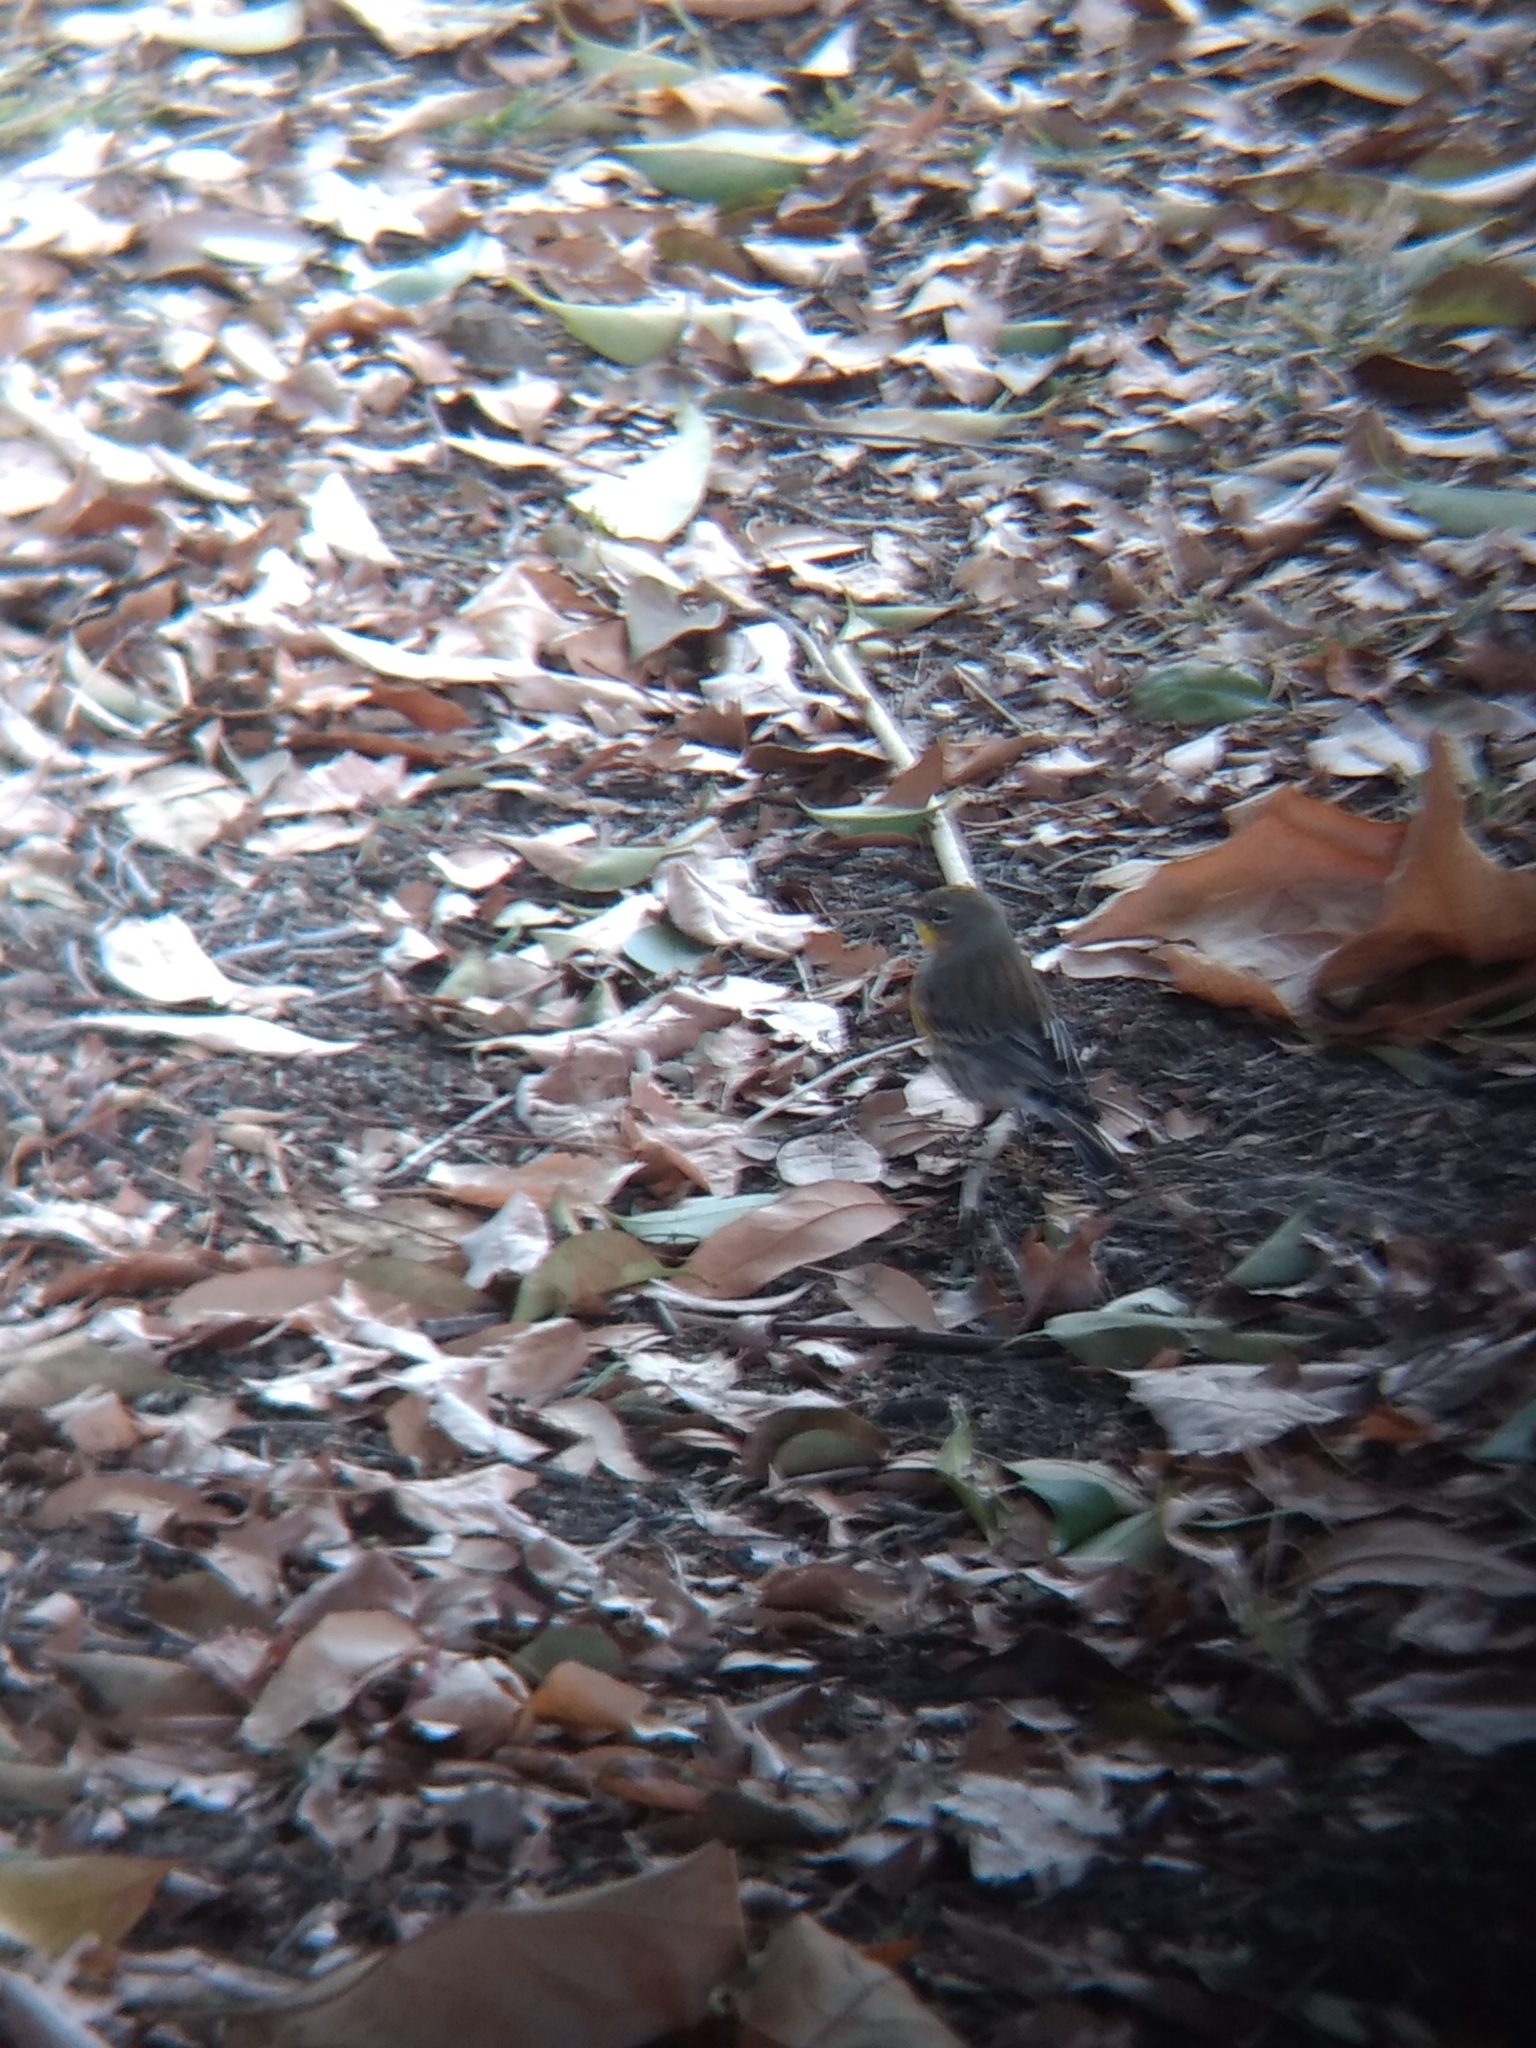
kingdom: Animalia
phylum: Chordata
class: Aves
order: Passeriformes
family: Parulidae
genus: Setophaga
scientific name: Setophaga coronata
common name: Myrtle warbler
